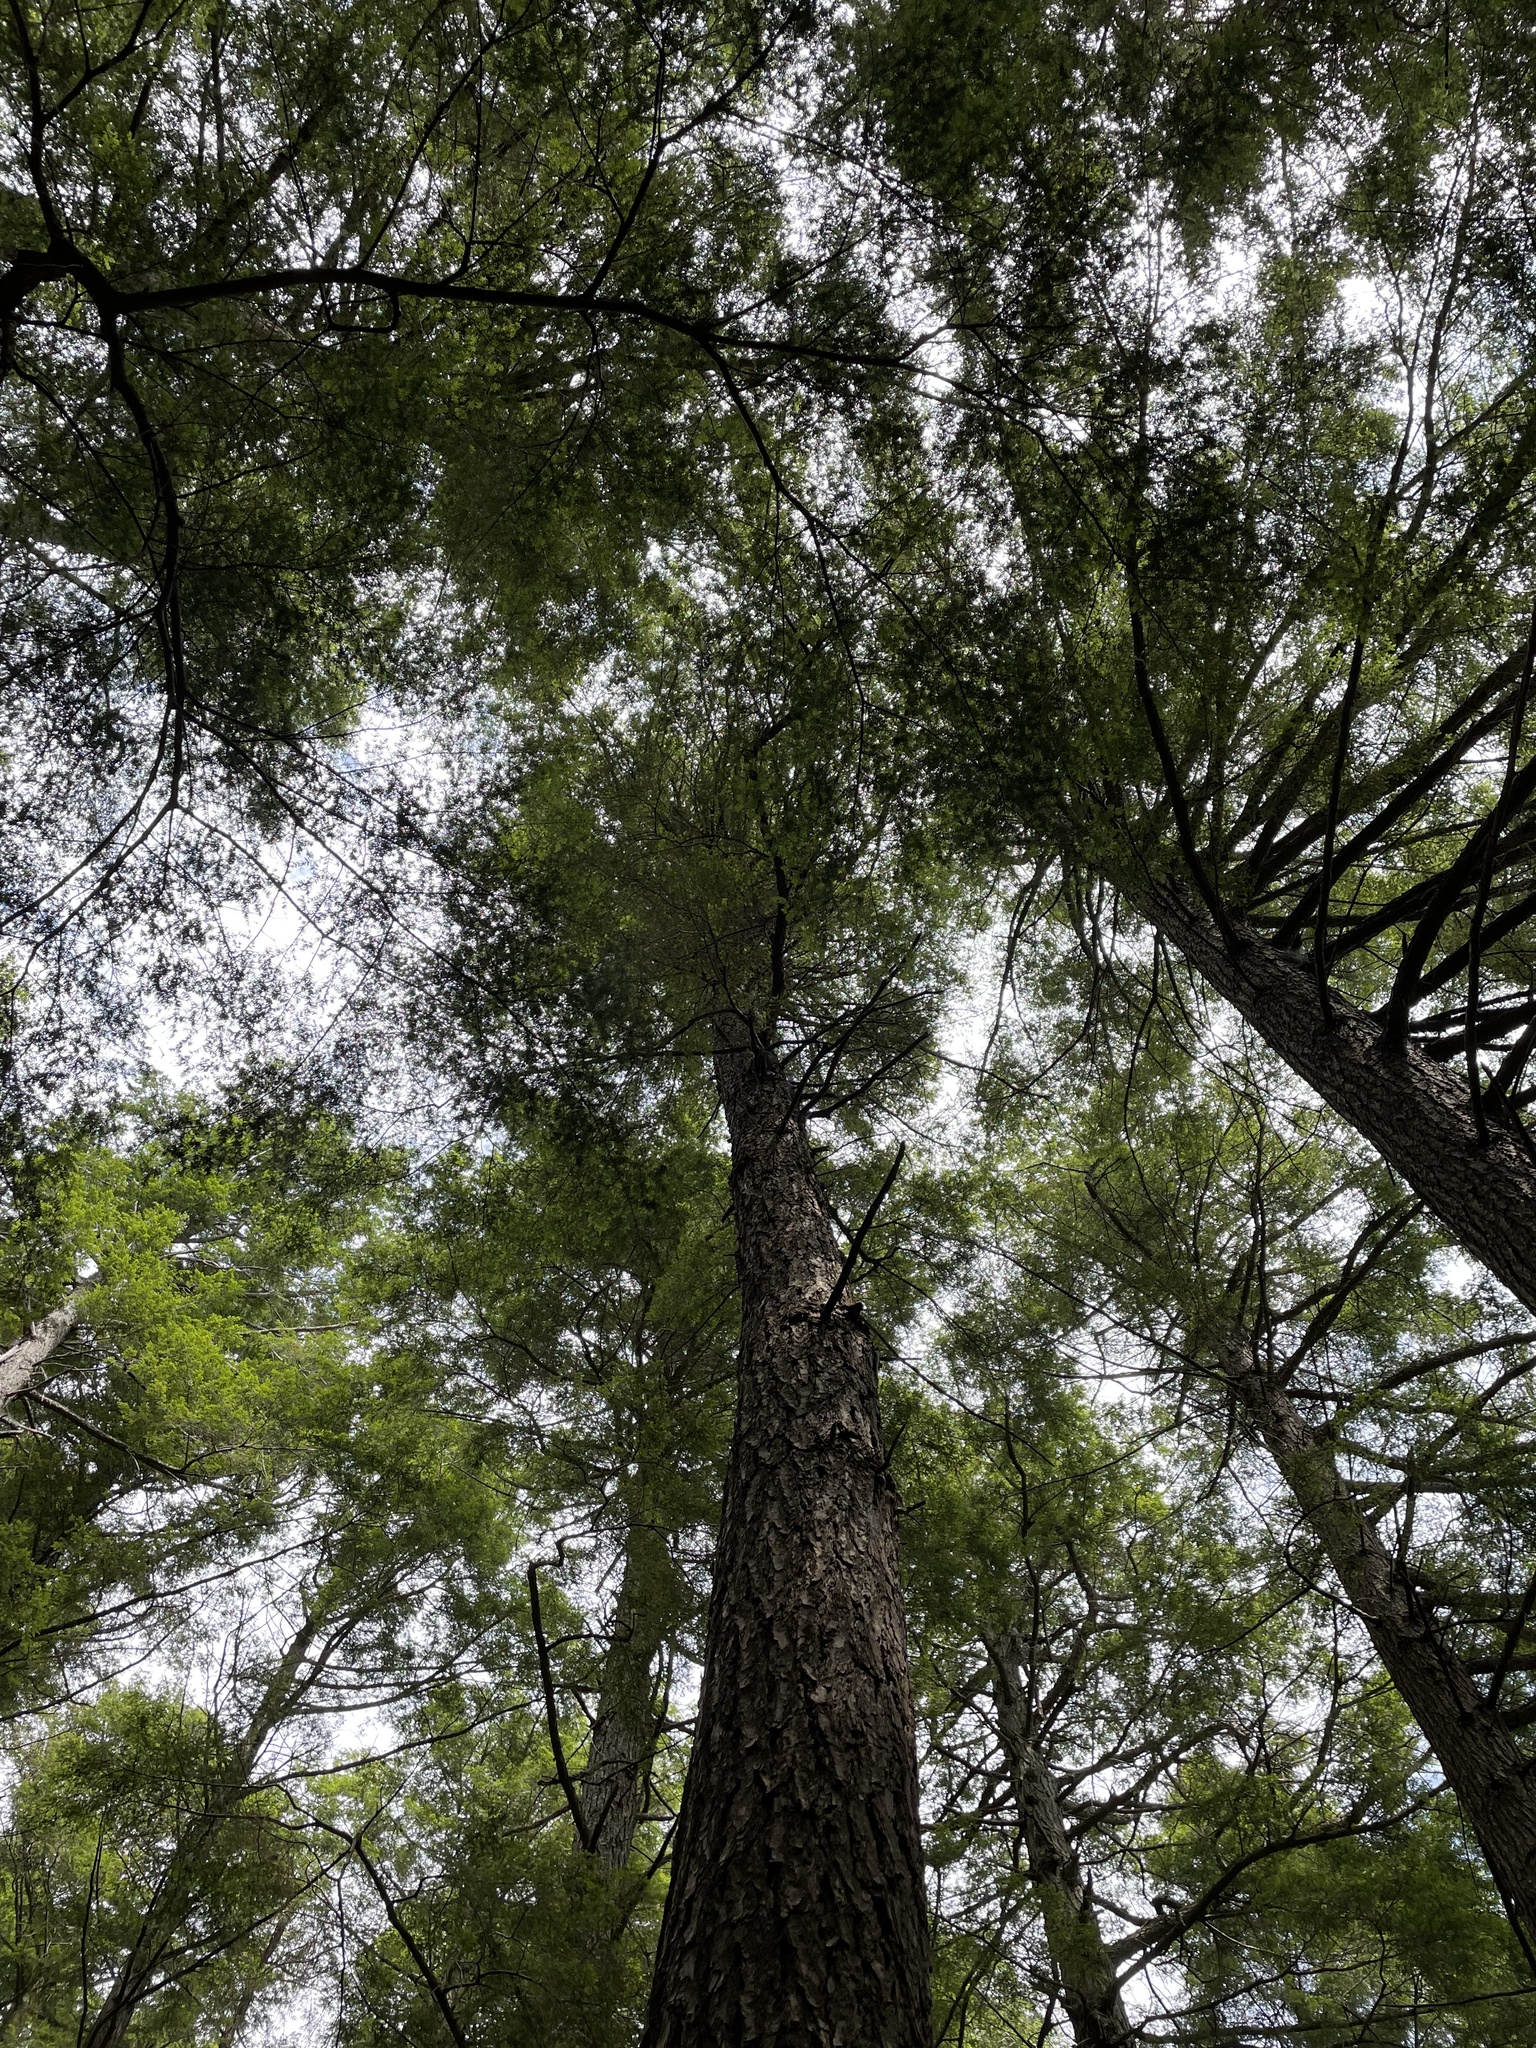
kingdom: Plantae
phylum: Tracheophyta
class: Pinopsida
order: Pinales
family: Pinaceae
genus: Tsuga
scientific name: Tsuga canadensis
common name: Eastern hemlock
